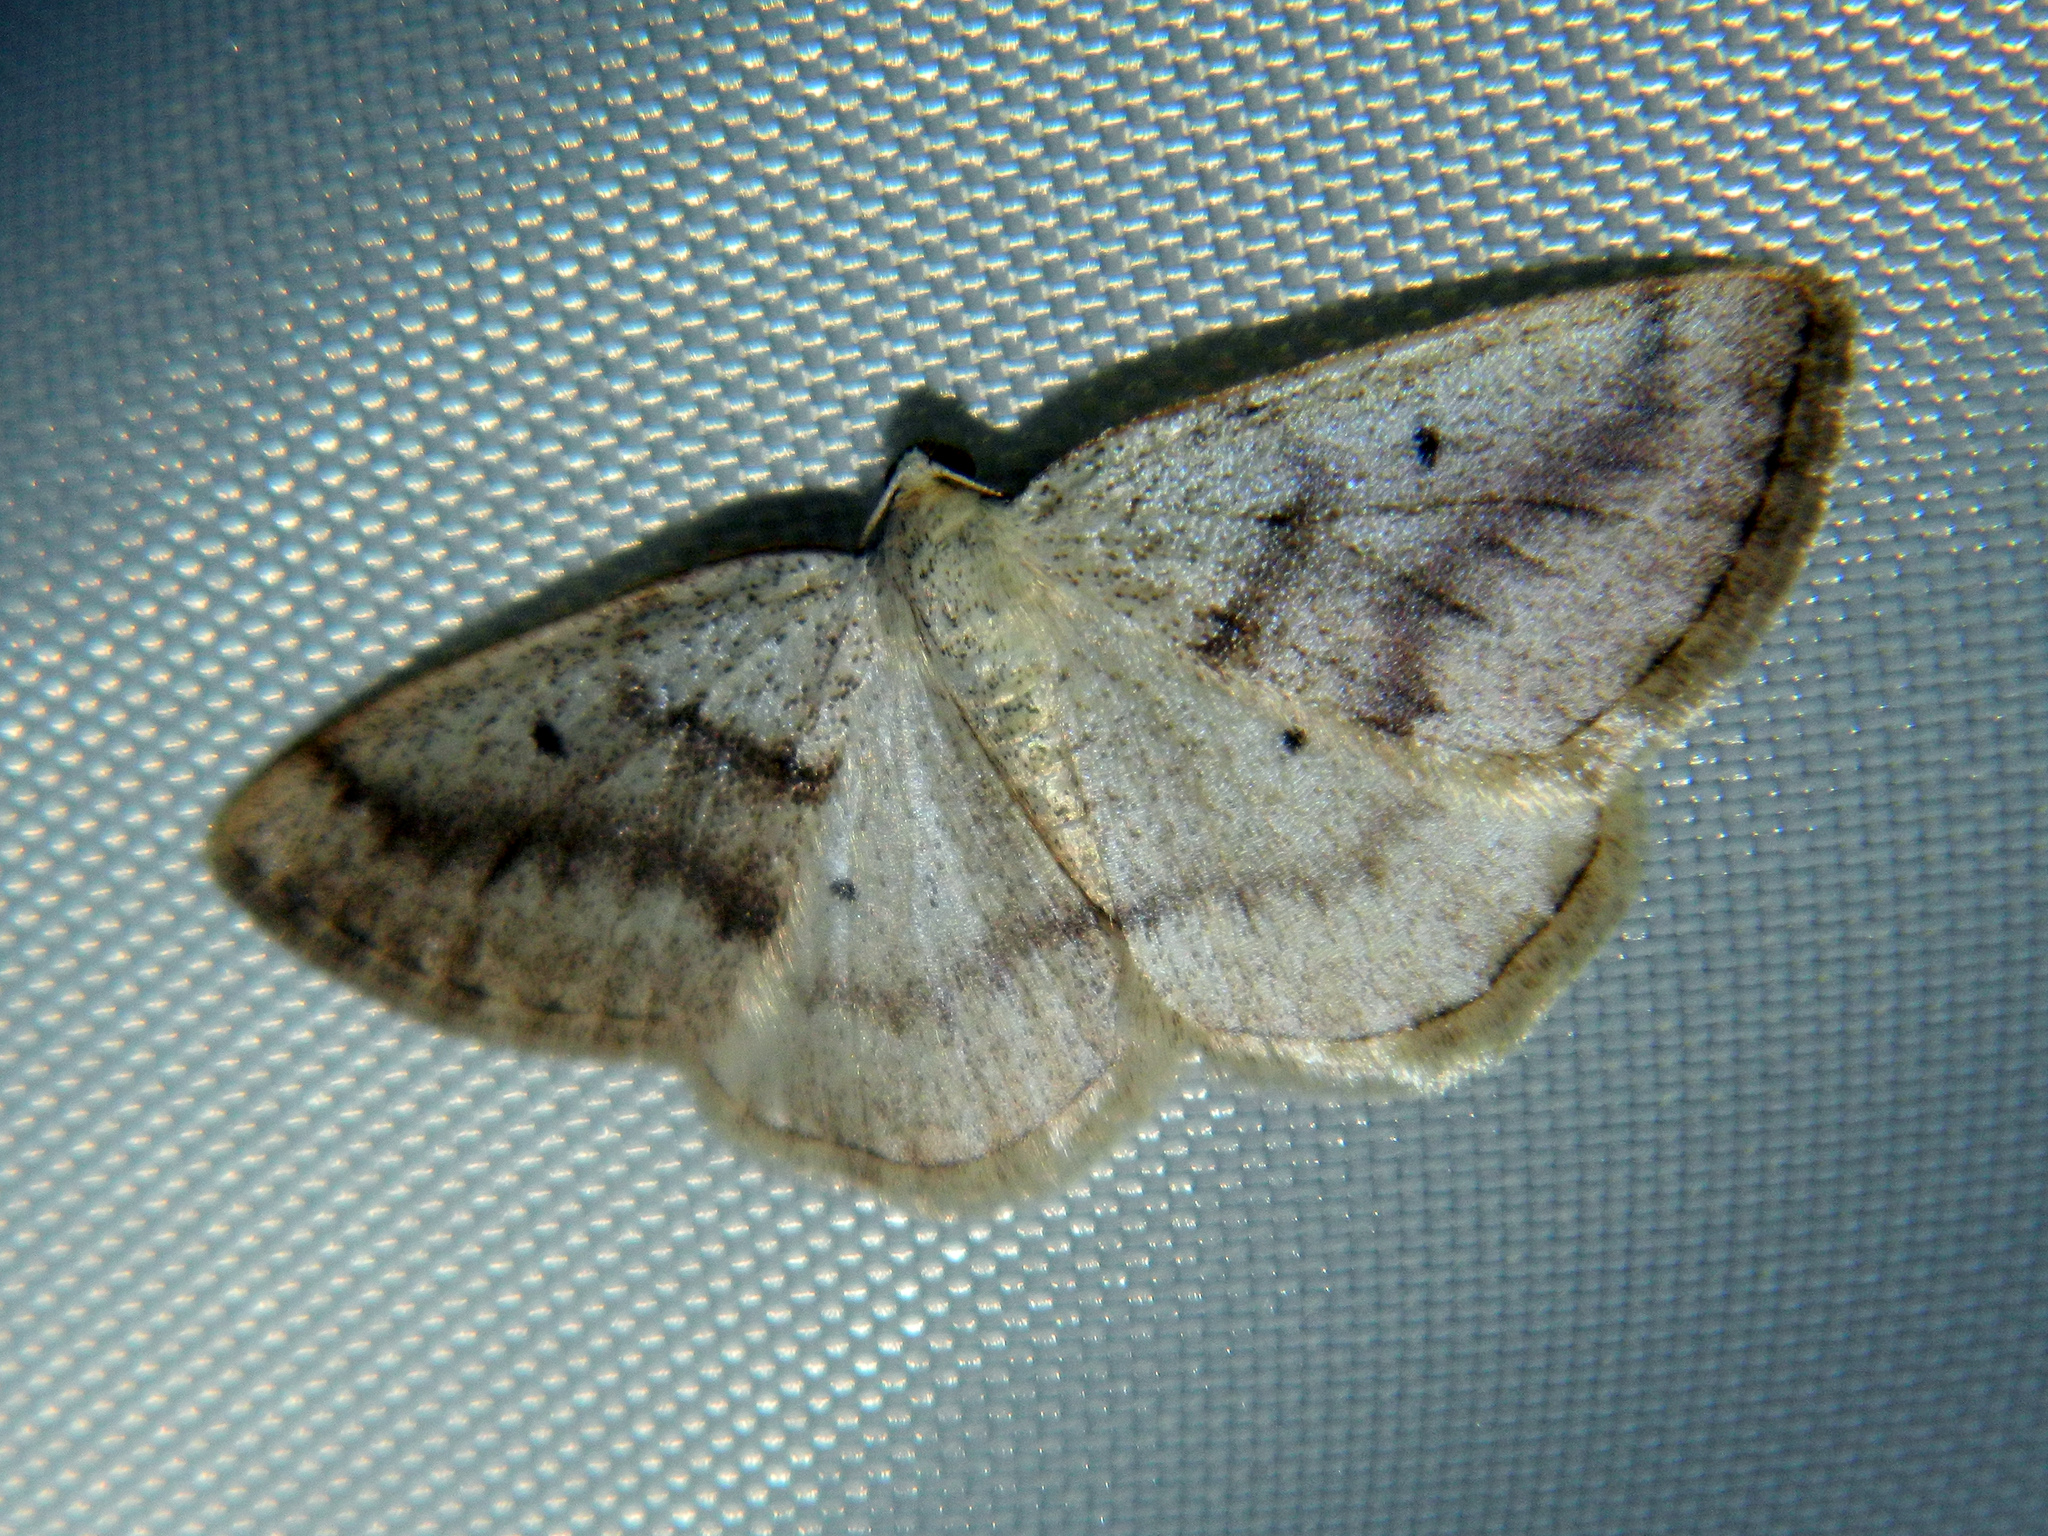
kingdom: Animalia
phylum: Arthropoda
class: Insecta
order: Lepidoptera
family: Geometridae
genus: Lomographa
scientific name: Lomographa glomeraria
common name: Gray spring moth
